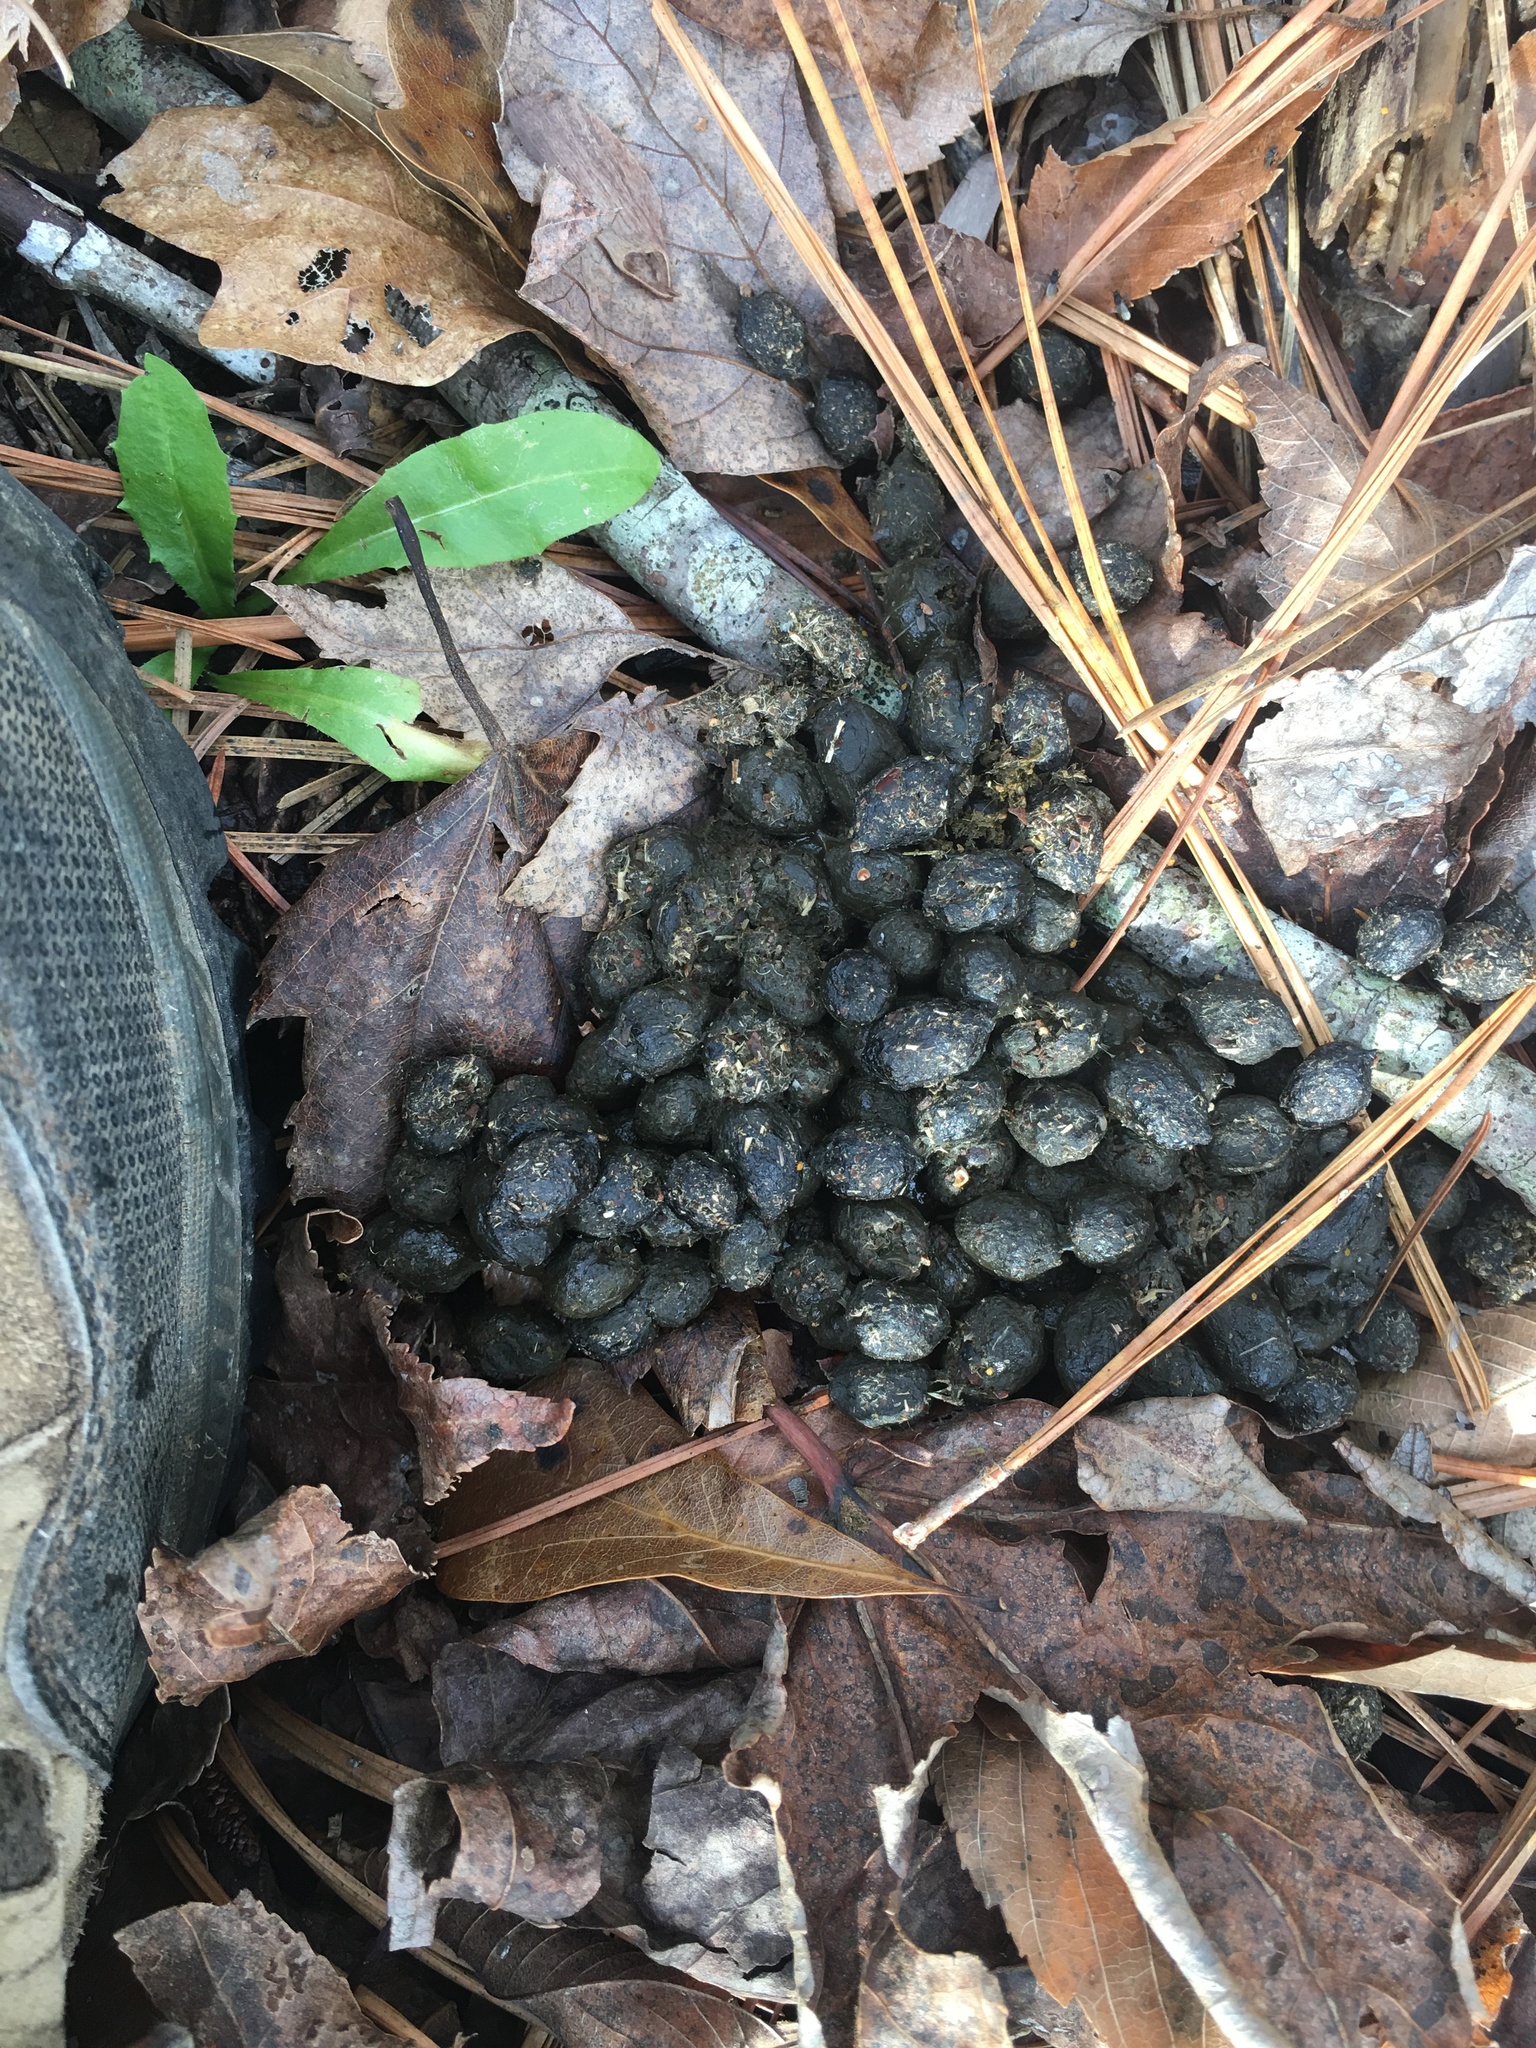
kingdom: Animalia
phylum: Chordata
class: Mammalia
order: Artiodactyla
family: Cervidae
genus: Odocoileus
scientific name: Odocoileus virginianus
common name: White-tailed deer
